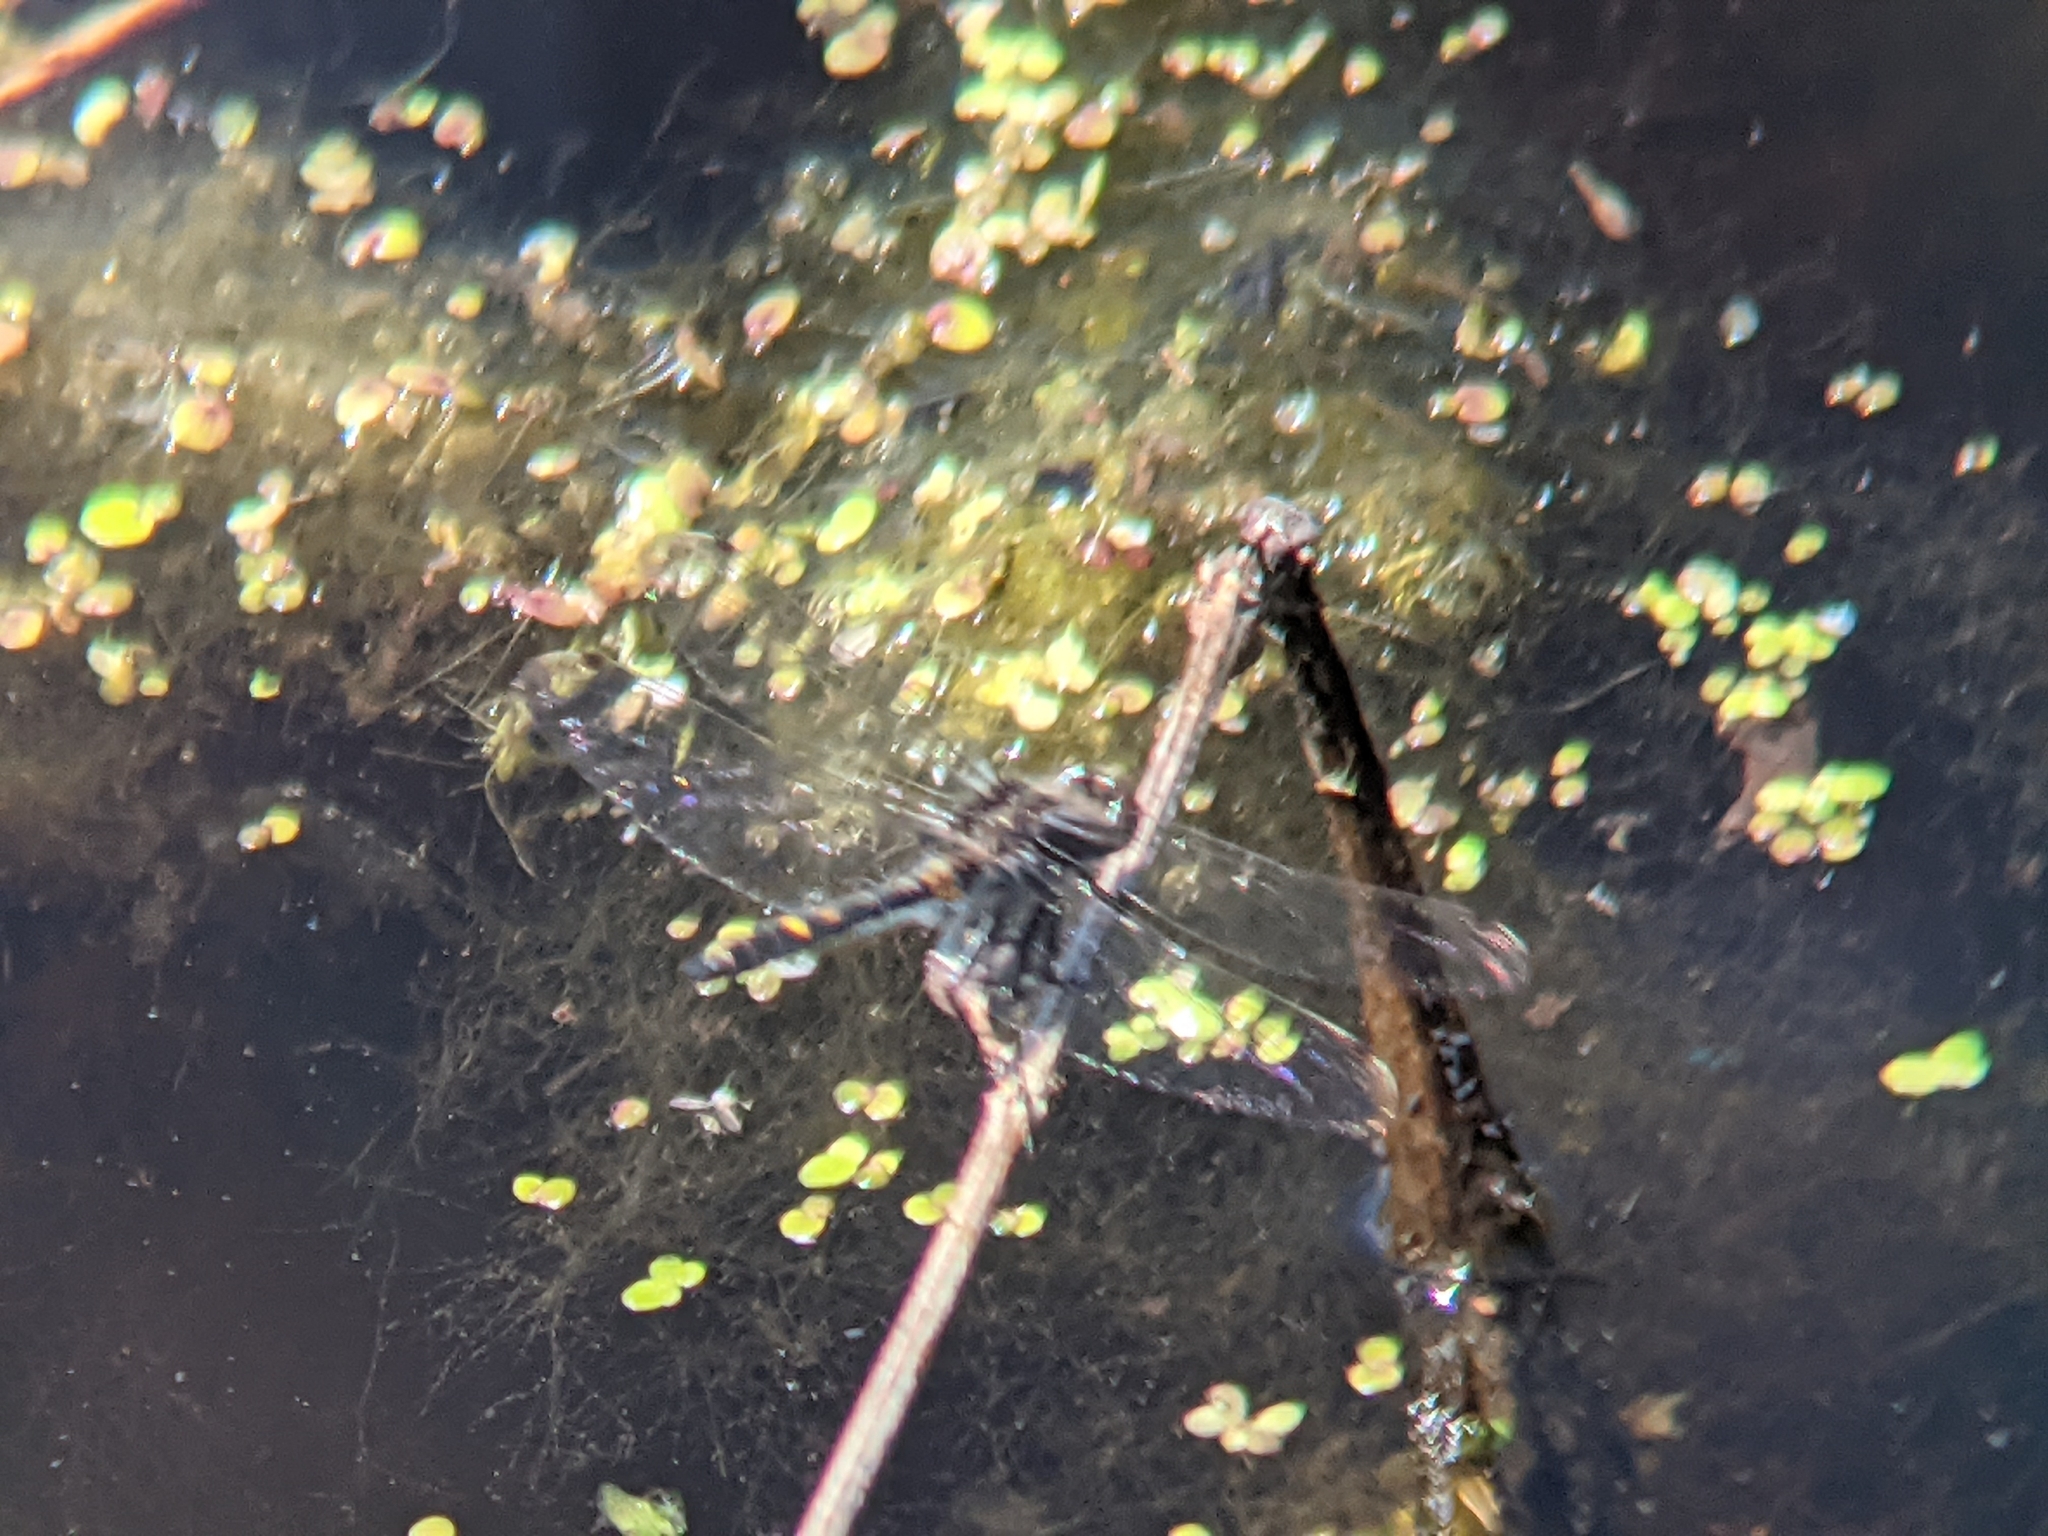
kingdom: Animalia
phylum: Arthropoda
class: Insecta
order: Odonata
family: Libellulidae
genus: Leucorrhinia
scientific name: Leucorrhinia intacta
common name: Dot-tailed whiteface
